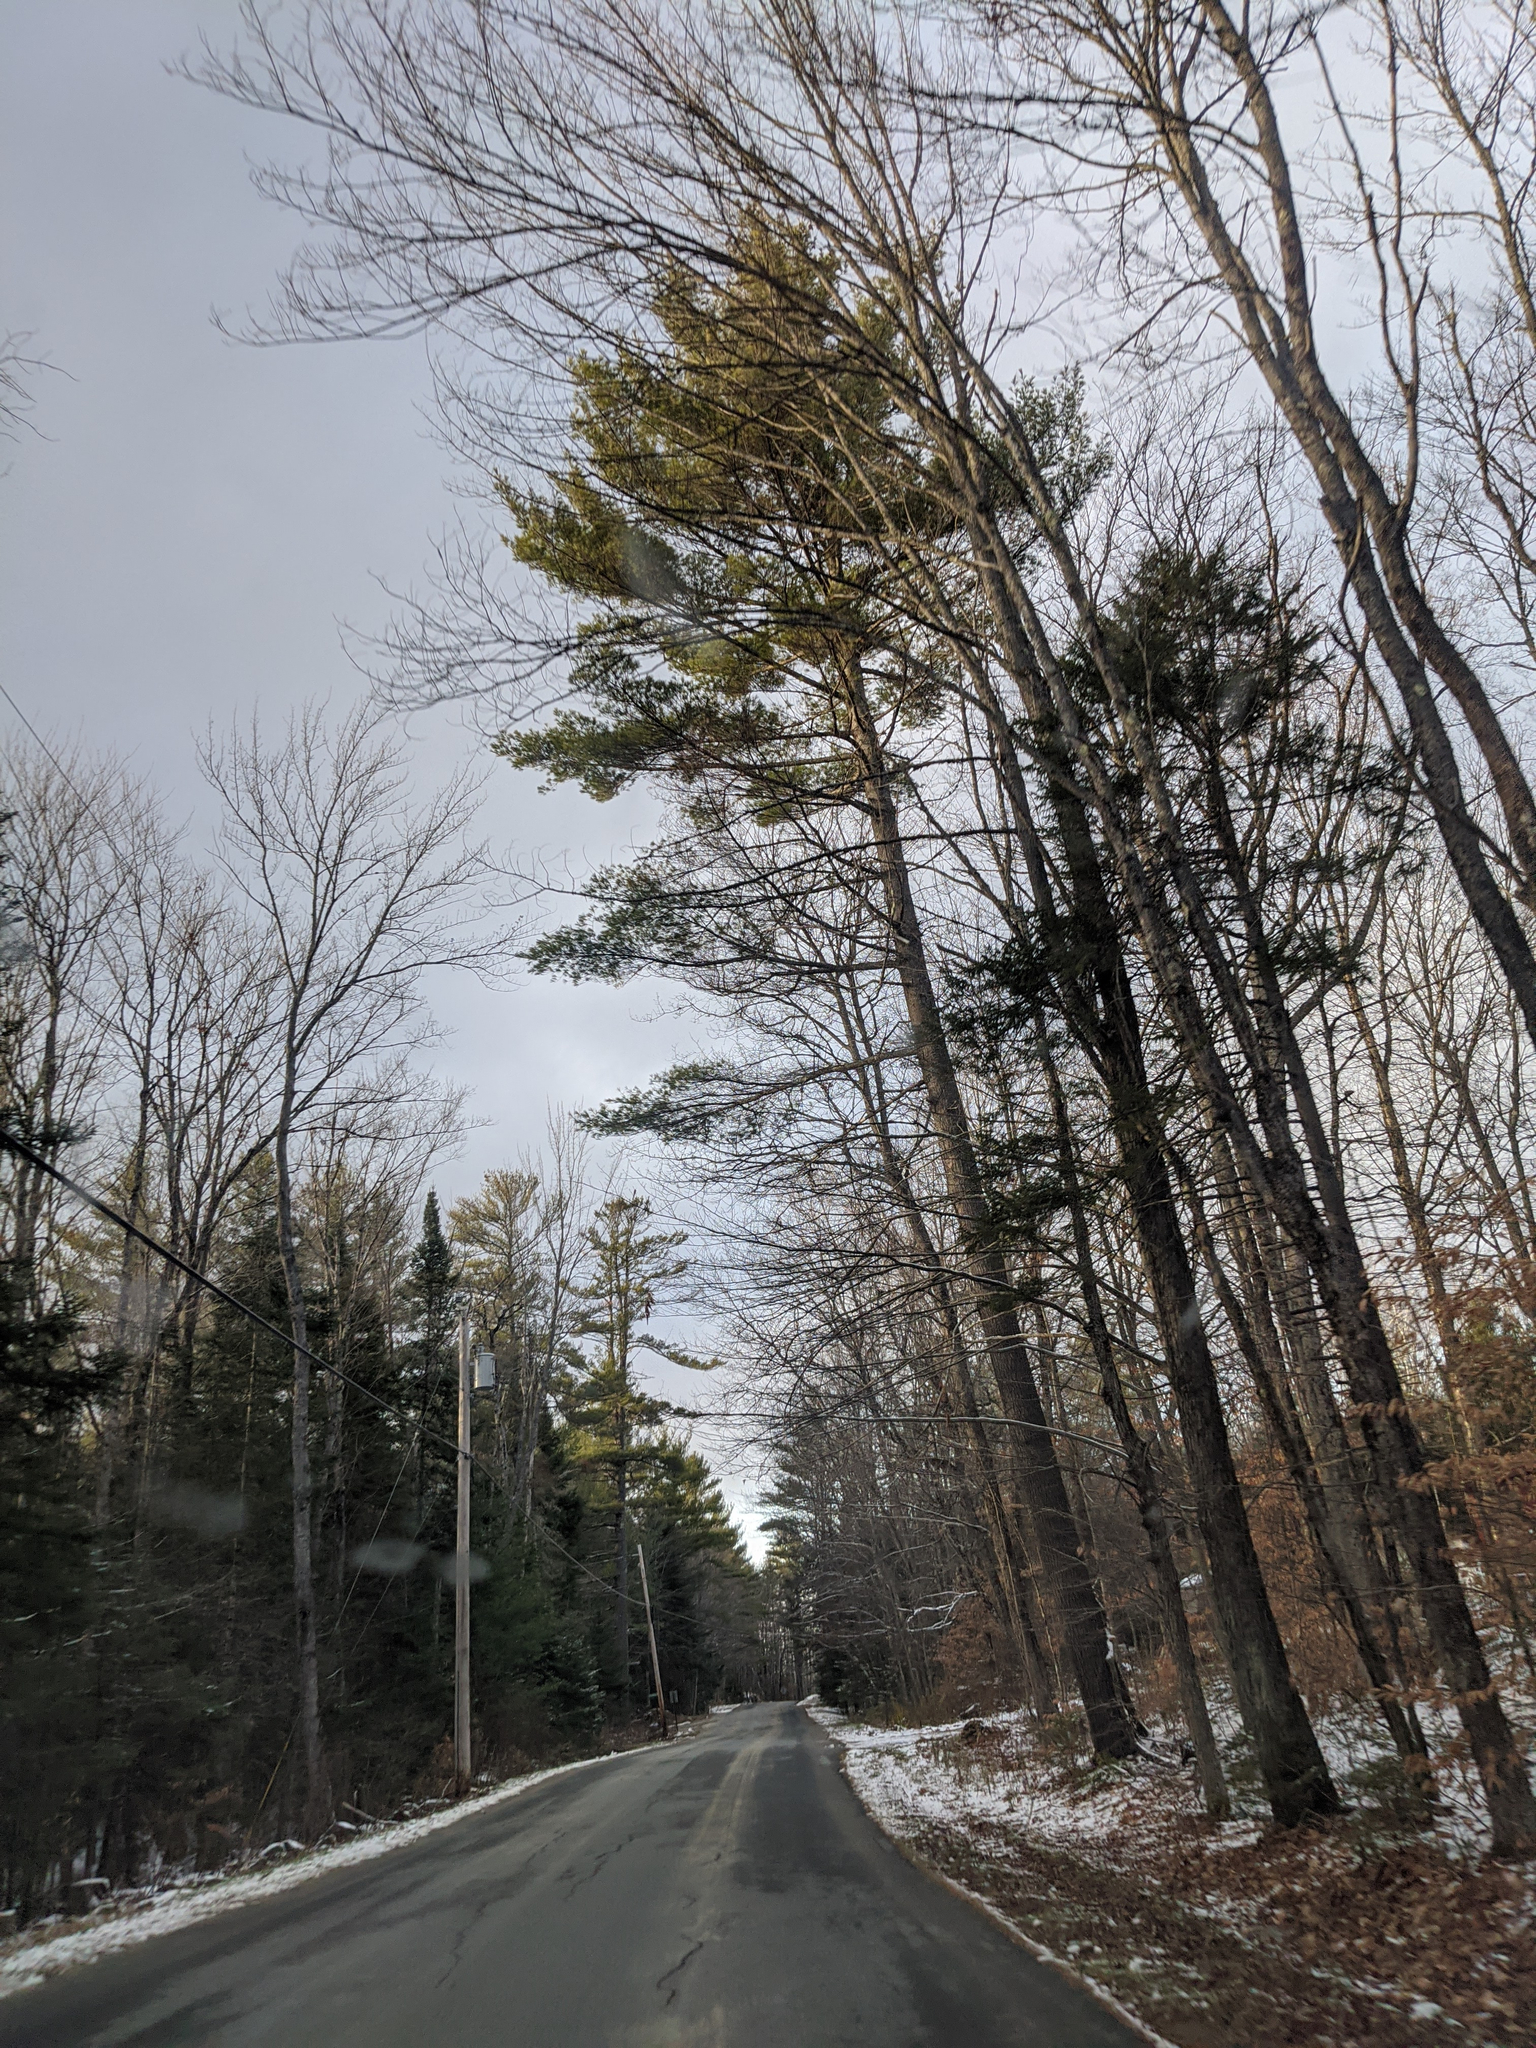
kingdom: Plantae
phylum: Tracheophyta
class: Pinopsida
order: Pinales
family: Pinaceae
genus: Pinus
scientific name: Pinus strobus
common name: Weymouth pine
